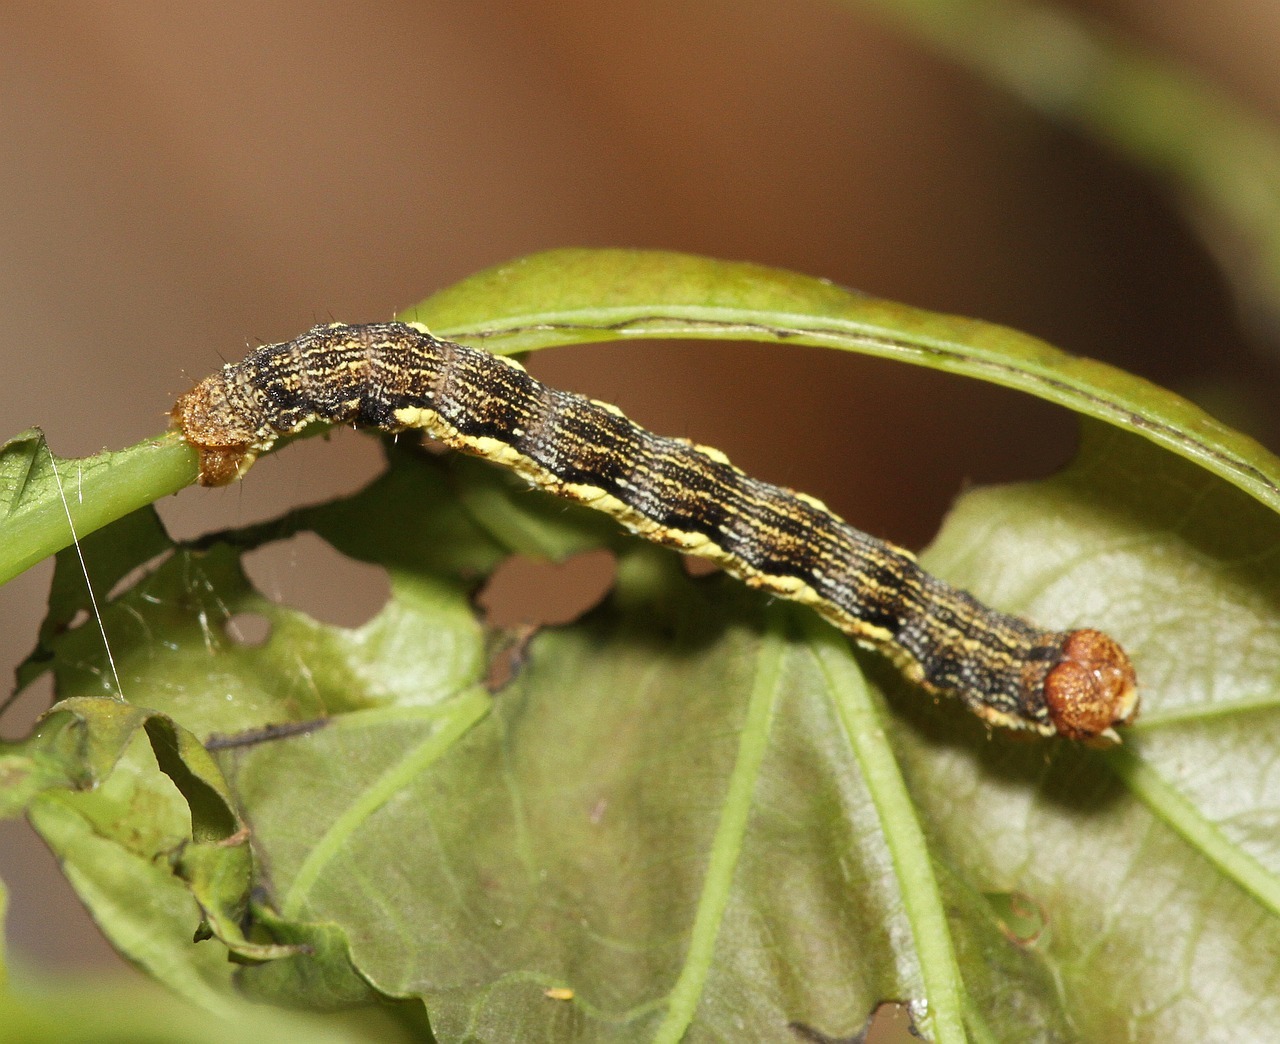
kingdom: Animalia
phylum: Arthropoda
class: Insecta
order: Lepidoptera
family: Geometridae
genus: Erannis
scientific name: Erannis defoliaria
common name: Mottled umber
